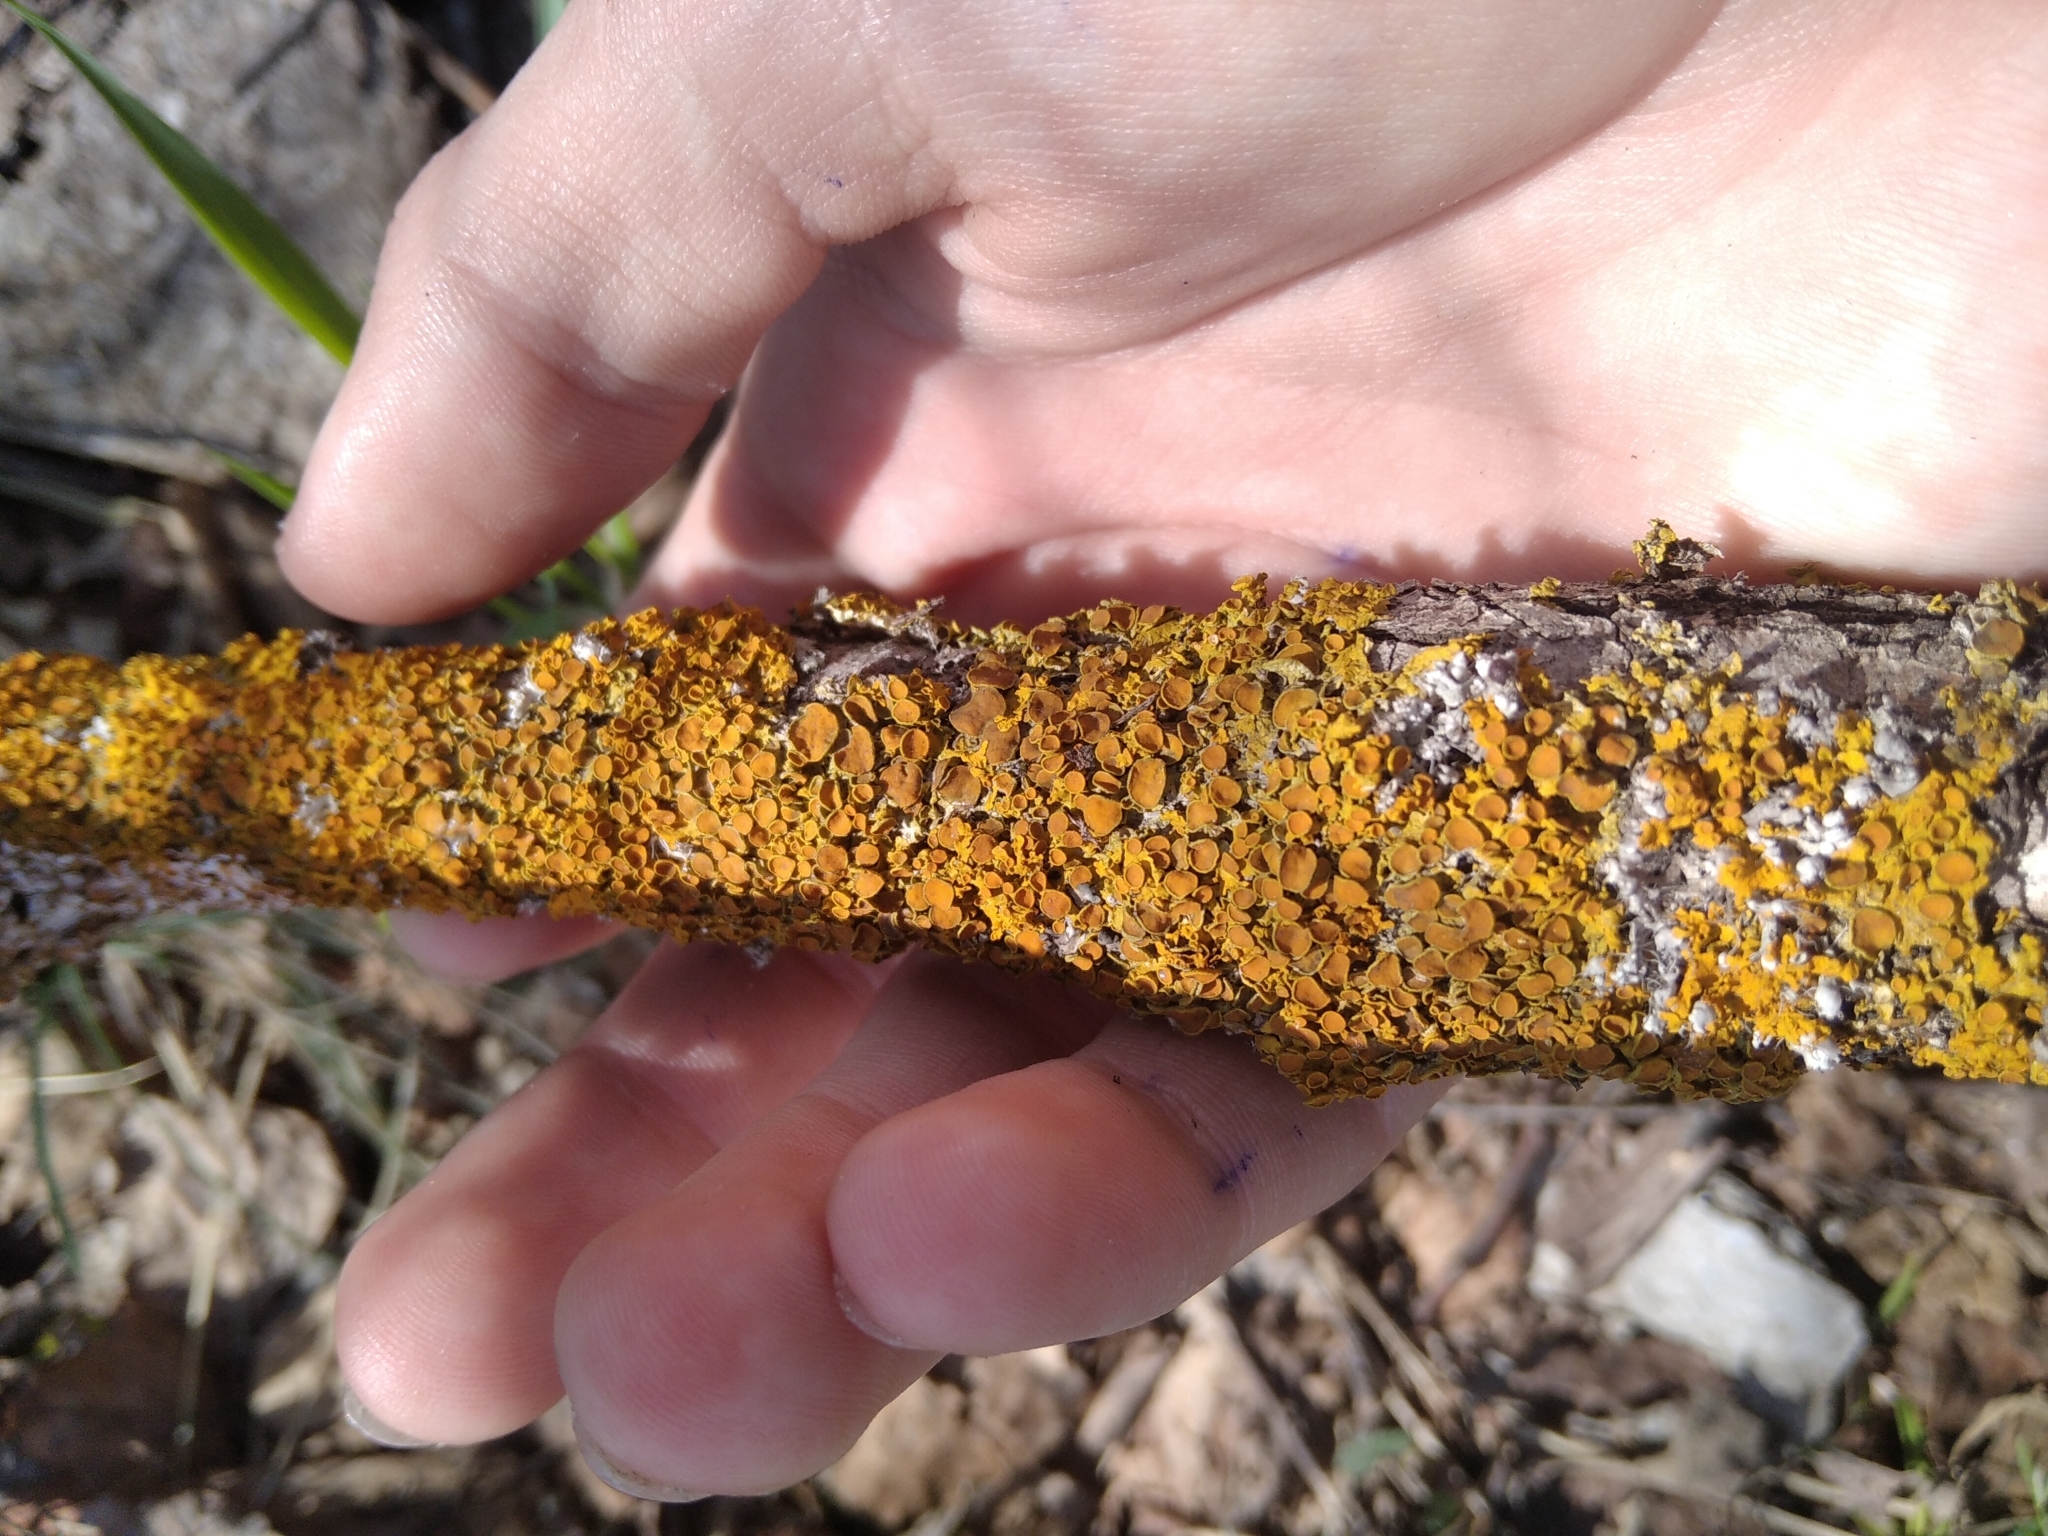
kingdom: Fungi
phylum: Ascomycota
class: Lecanoromycetes
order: Teloschistales
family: Teloschistaceae
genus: Xanthoria
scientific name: Xanthoria parietina
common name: Common orange lichen
